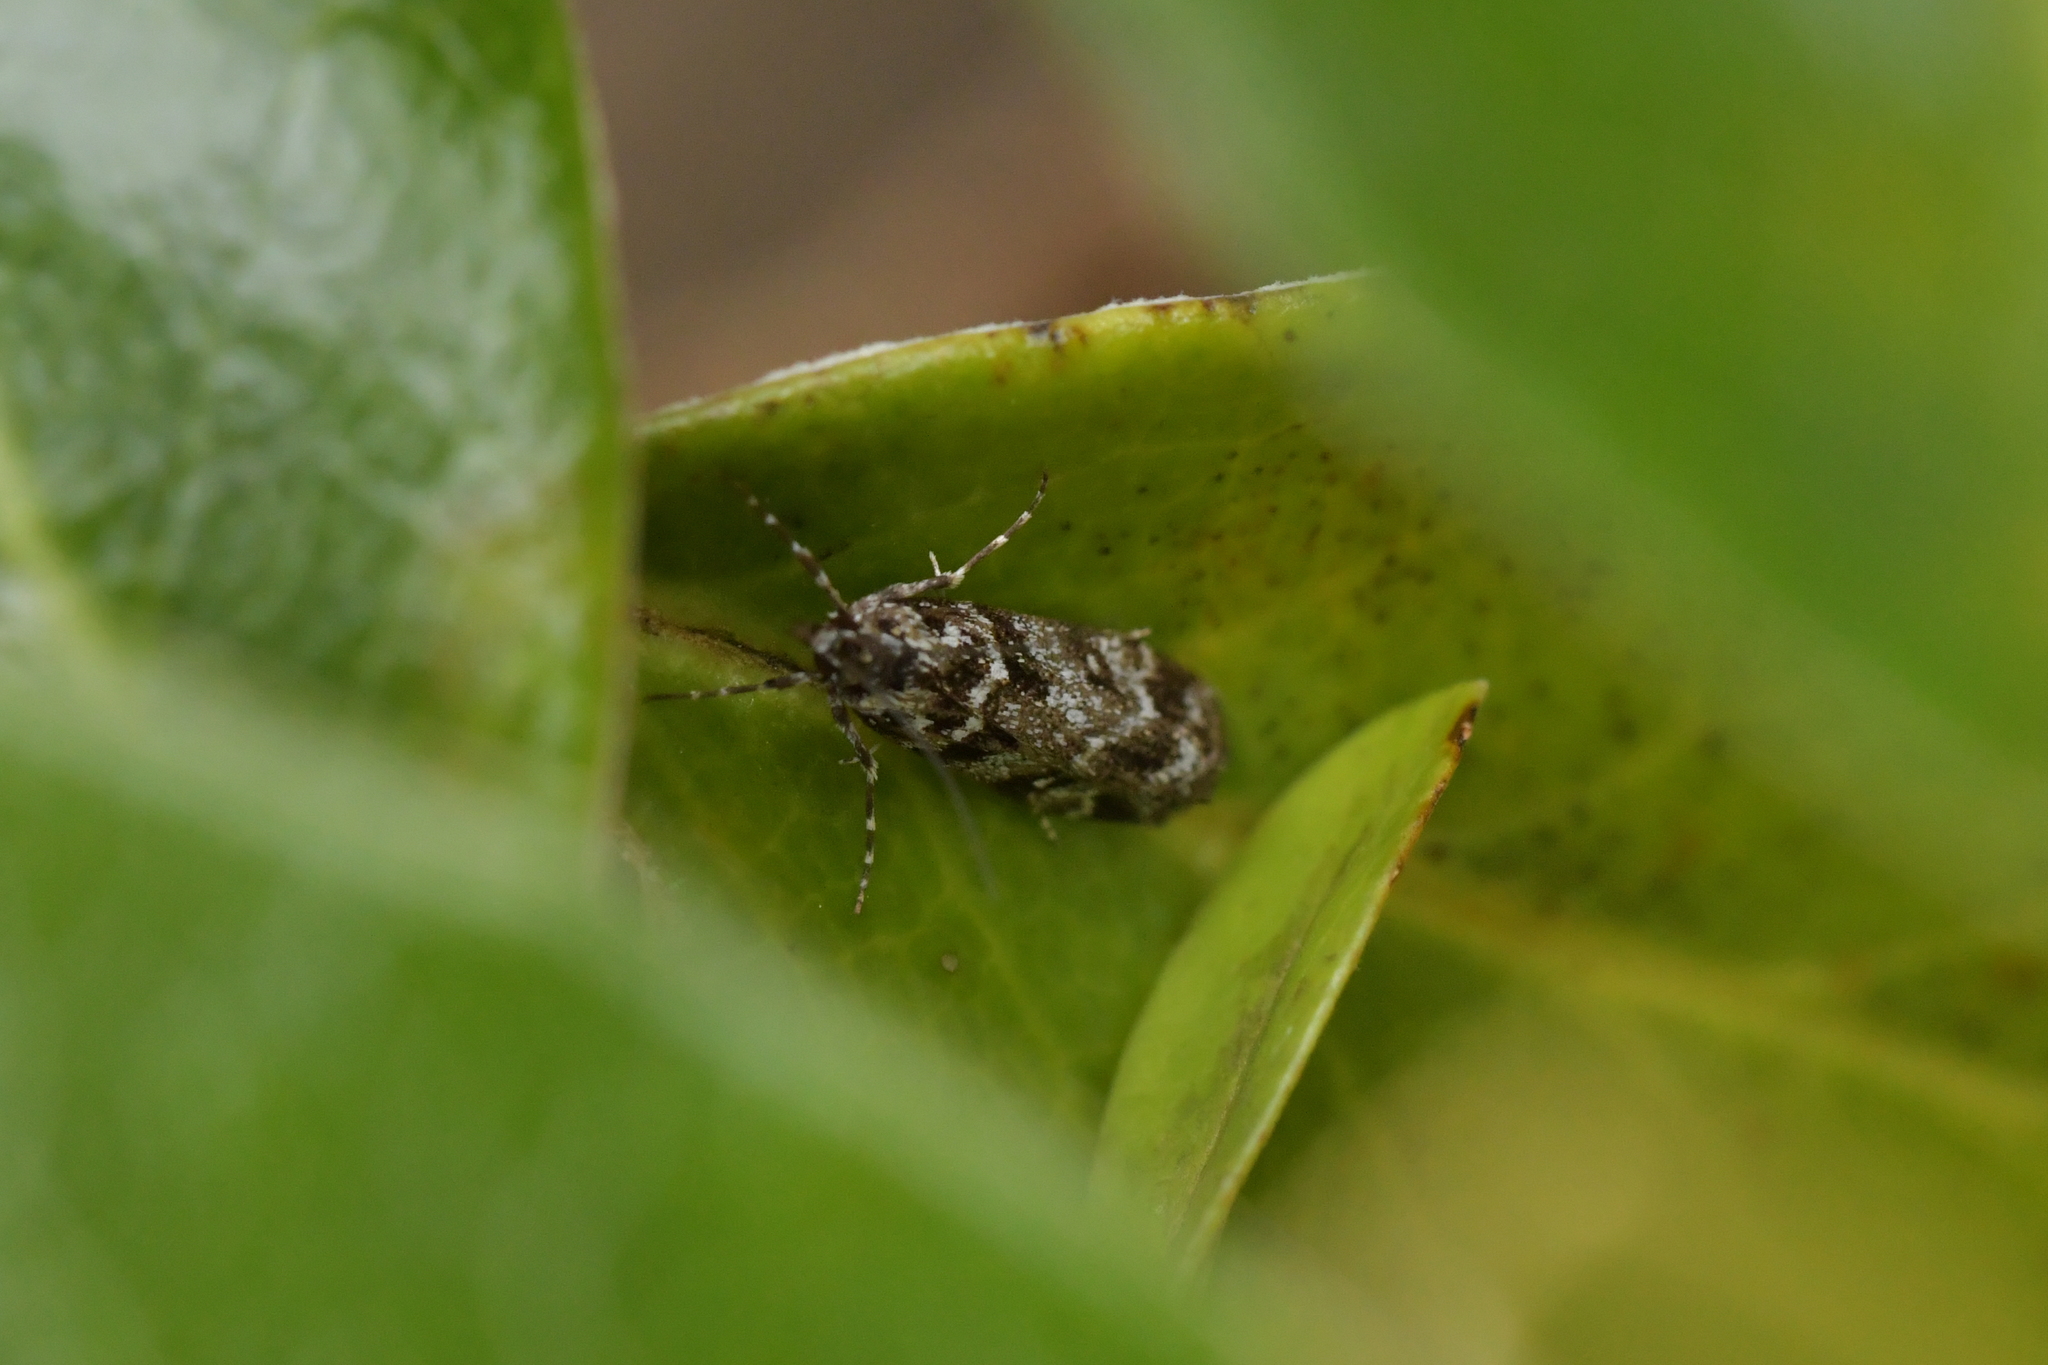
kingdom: Animalia
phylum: Arthropoda
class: Insecta
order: Lepidoptera
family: Crambidae
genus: Eudonia
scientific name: Eudonia critica
